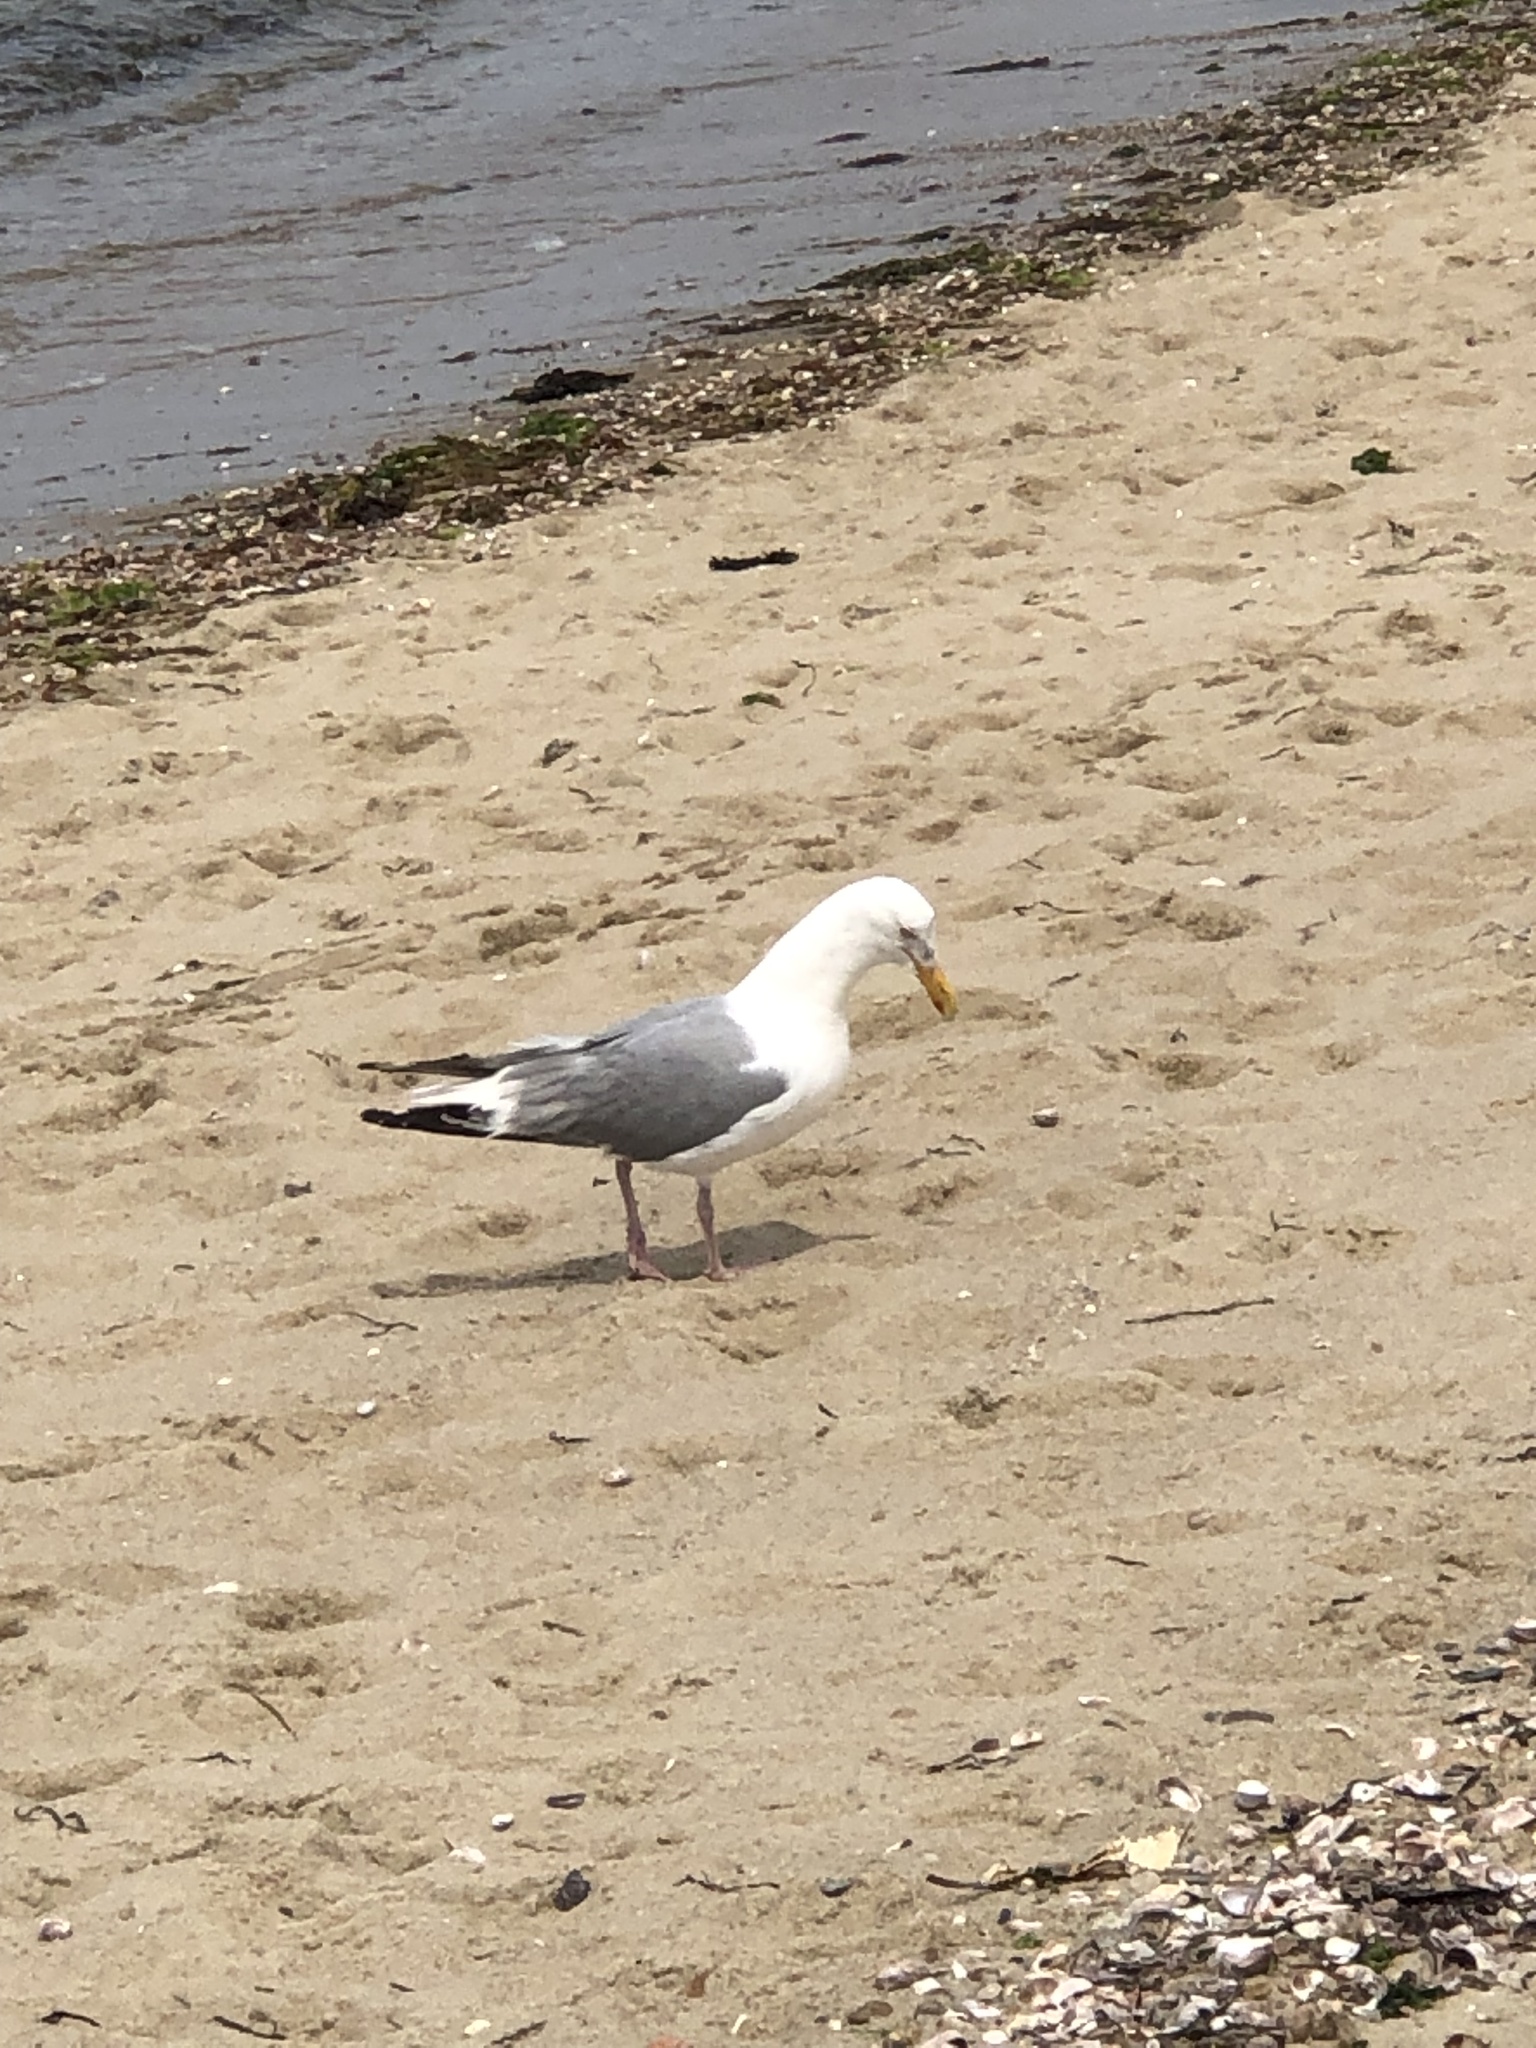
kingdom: Animalia
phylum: Chordata
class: Aves
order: Charadriiformes
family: Laridae
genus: Larus
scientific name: Larus argentatus
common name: Herring gull
